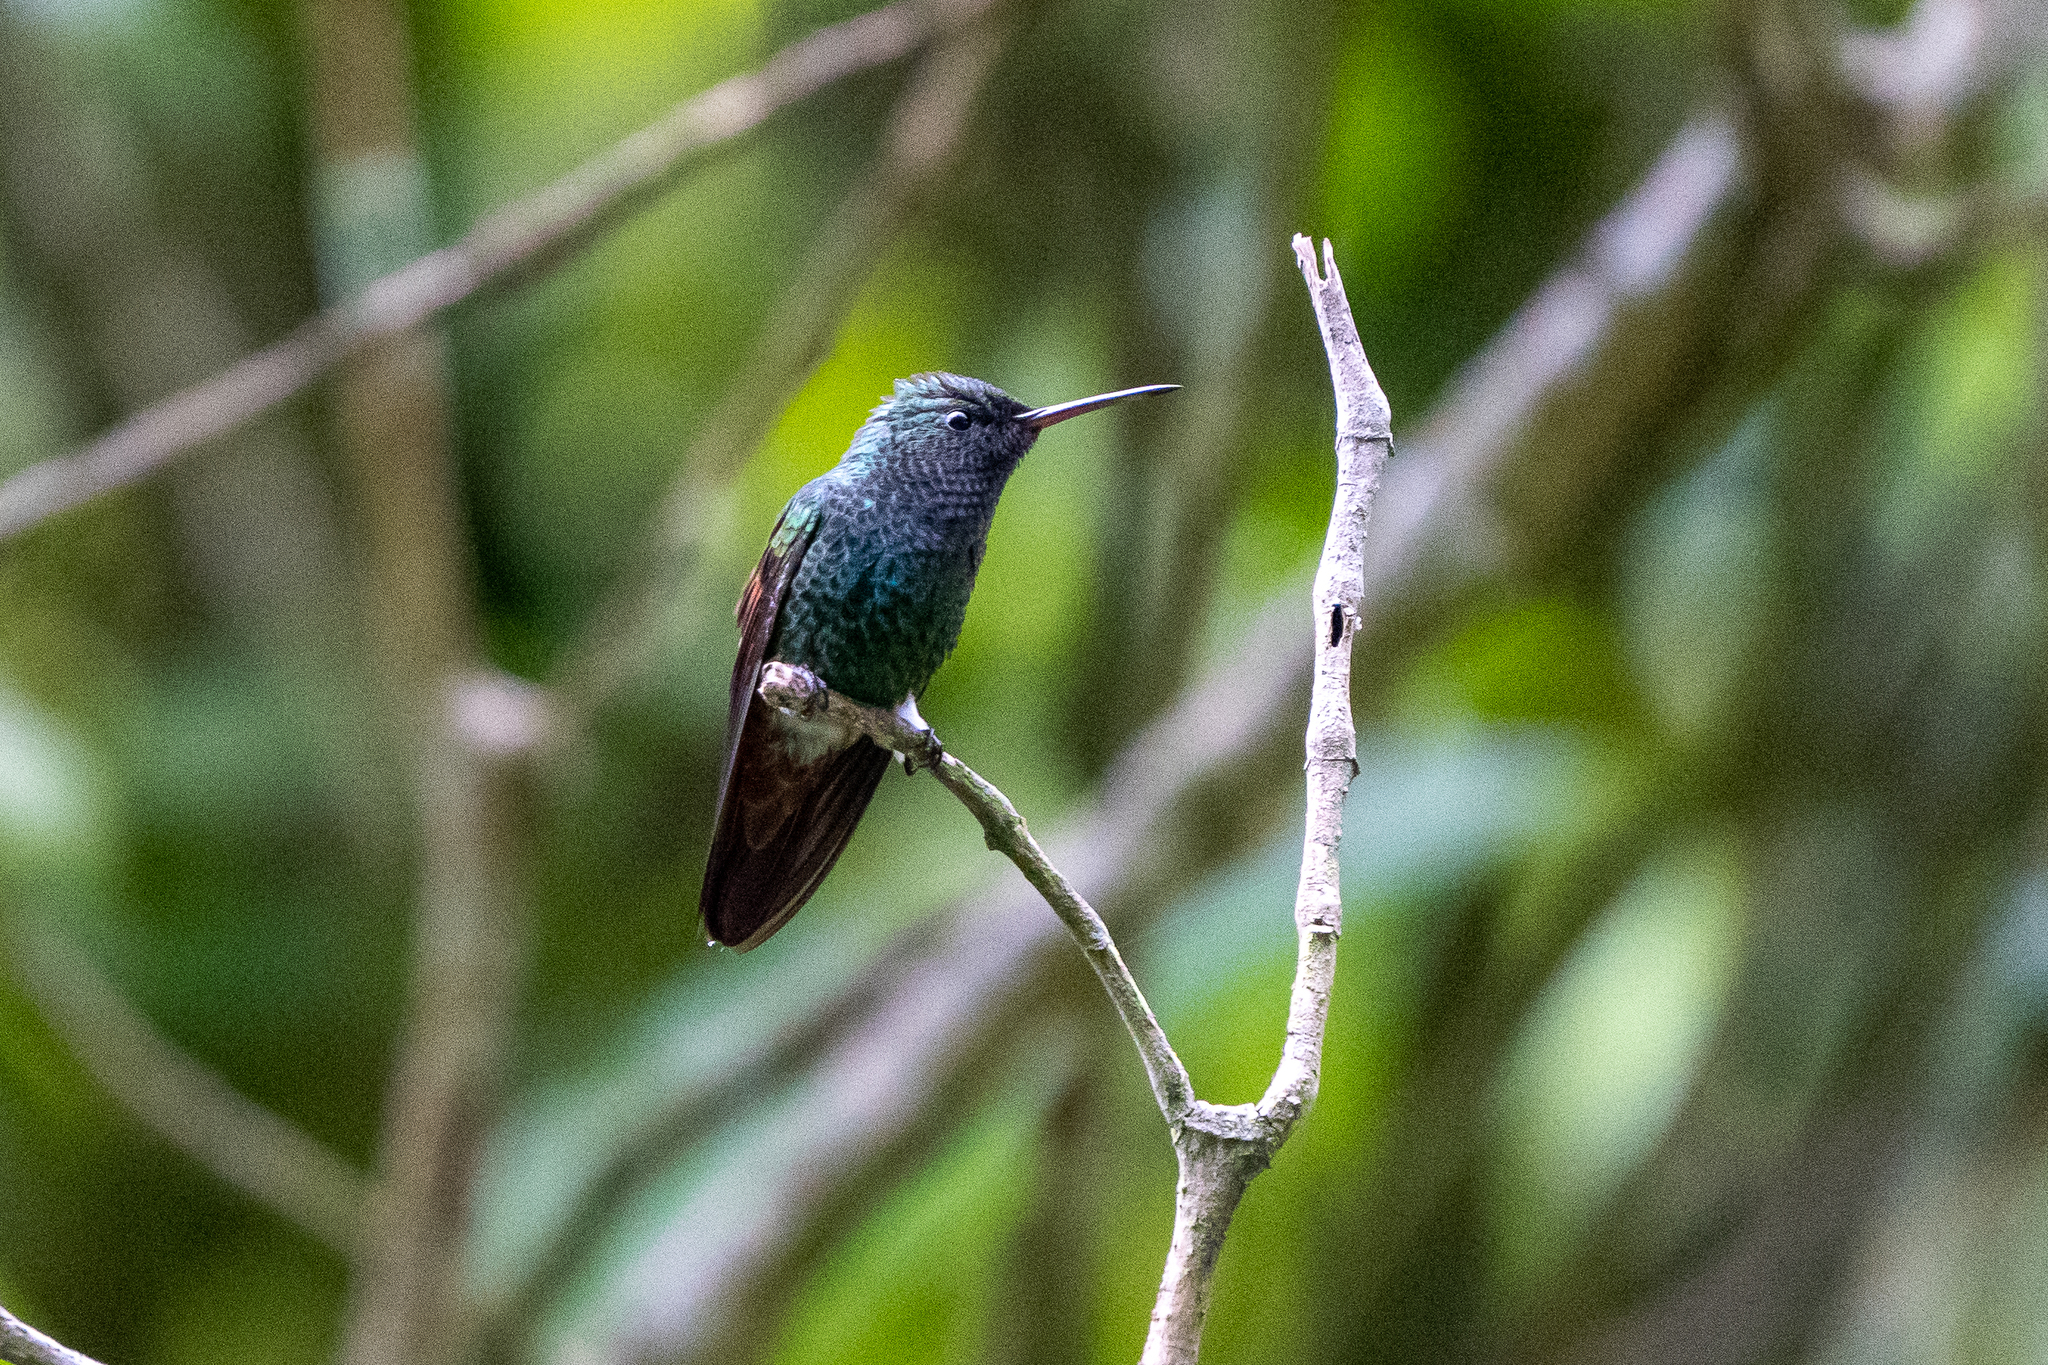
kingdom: Animalia
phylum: Chordata
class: Aves
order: Apodiformes
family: Trochilidae
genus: Saucerottia
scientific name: Saucerottia beryllina
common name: Berylline hummingbird
